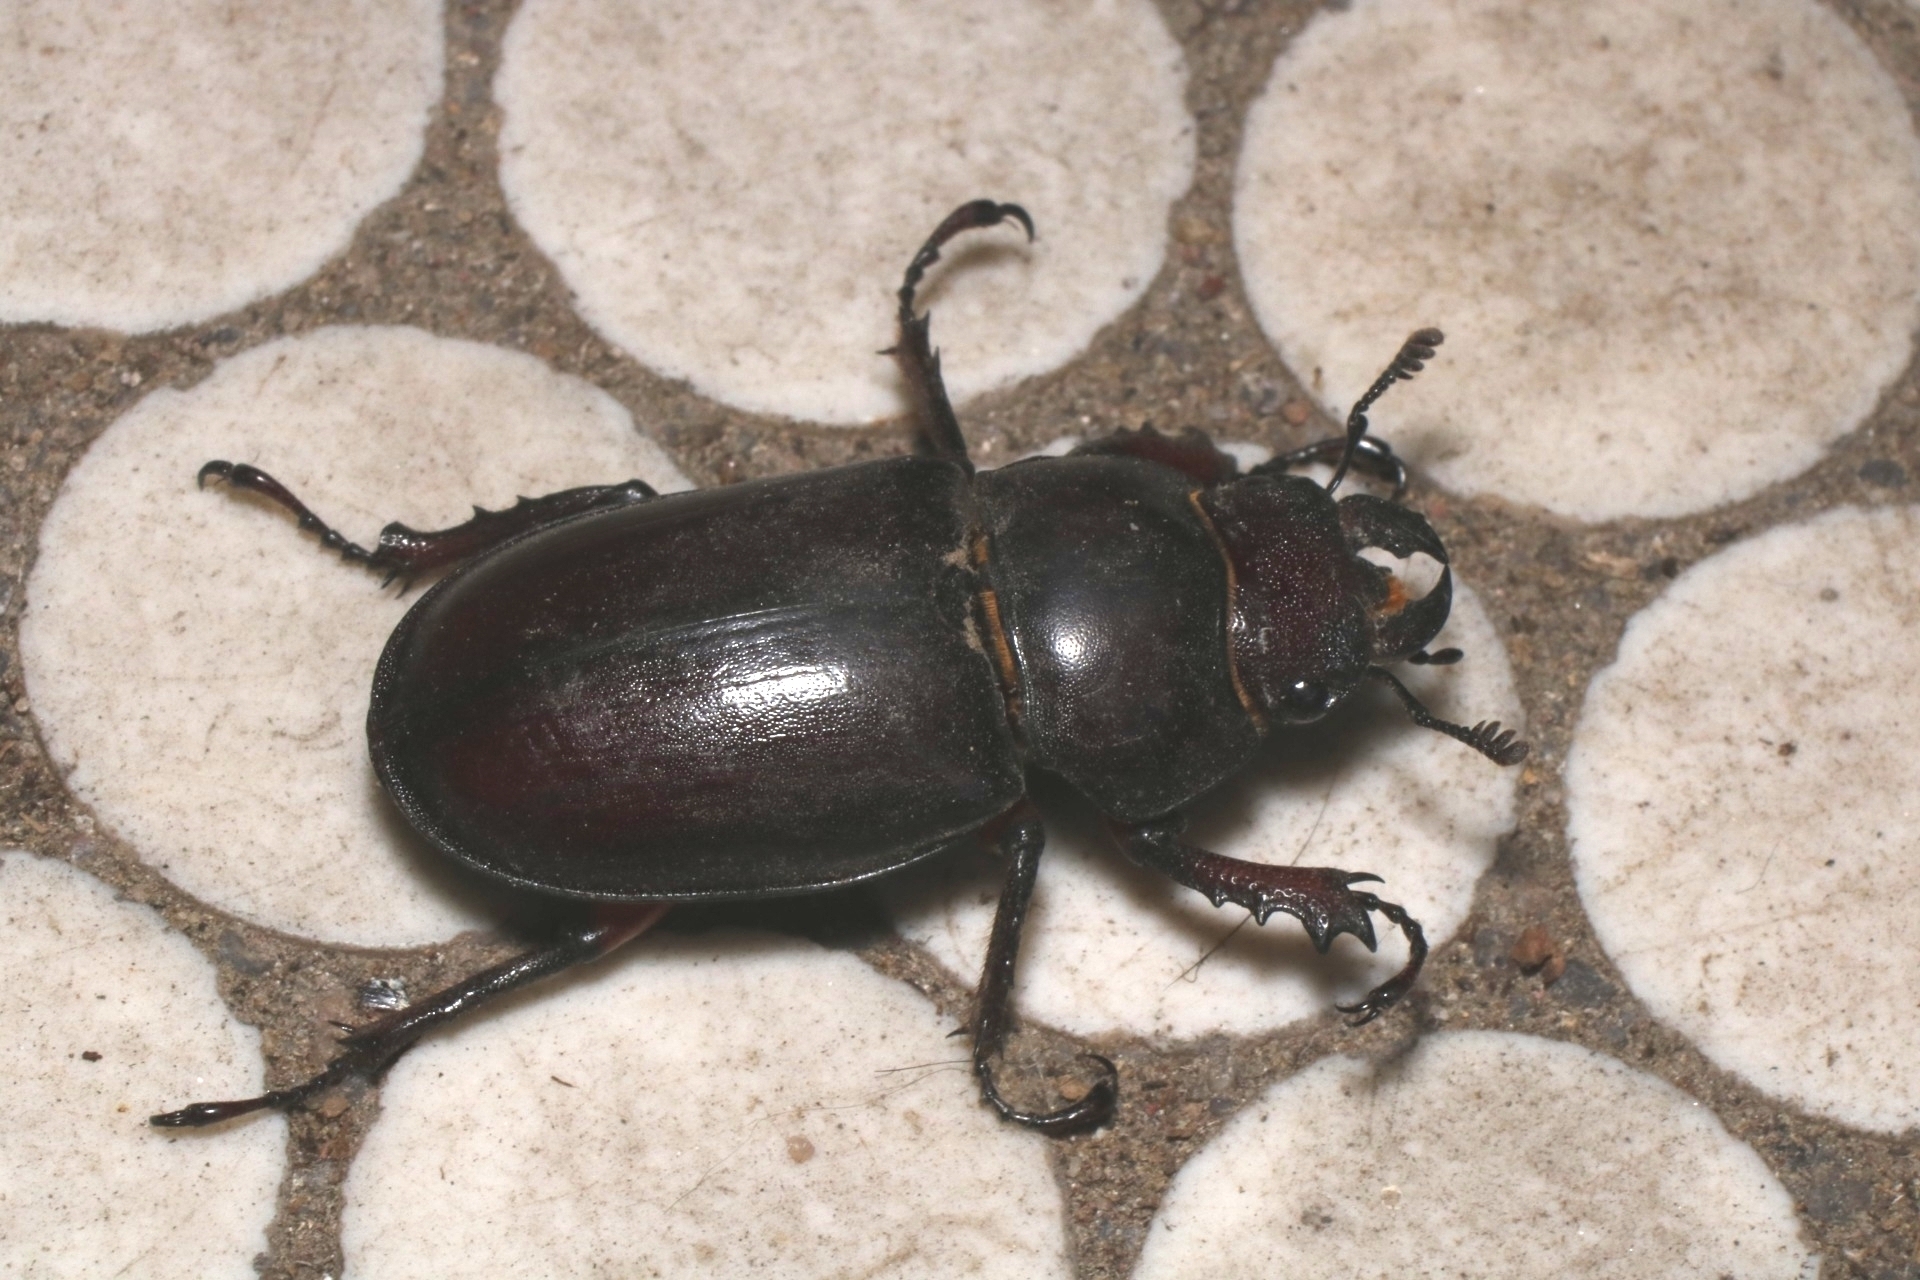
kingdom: Animalia
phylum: Arthropoda
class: Insecta
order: Coleoptera
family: Lucanidae
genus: Lucanus
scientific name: Lucanus capreolus
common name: Stag beetle
